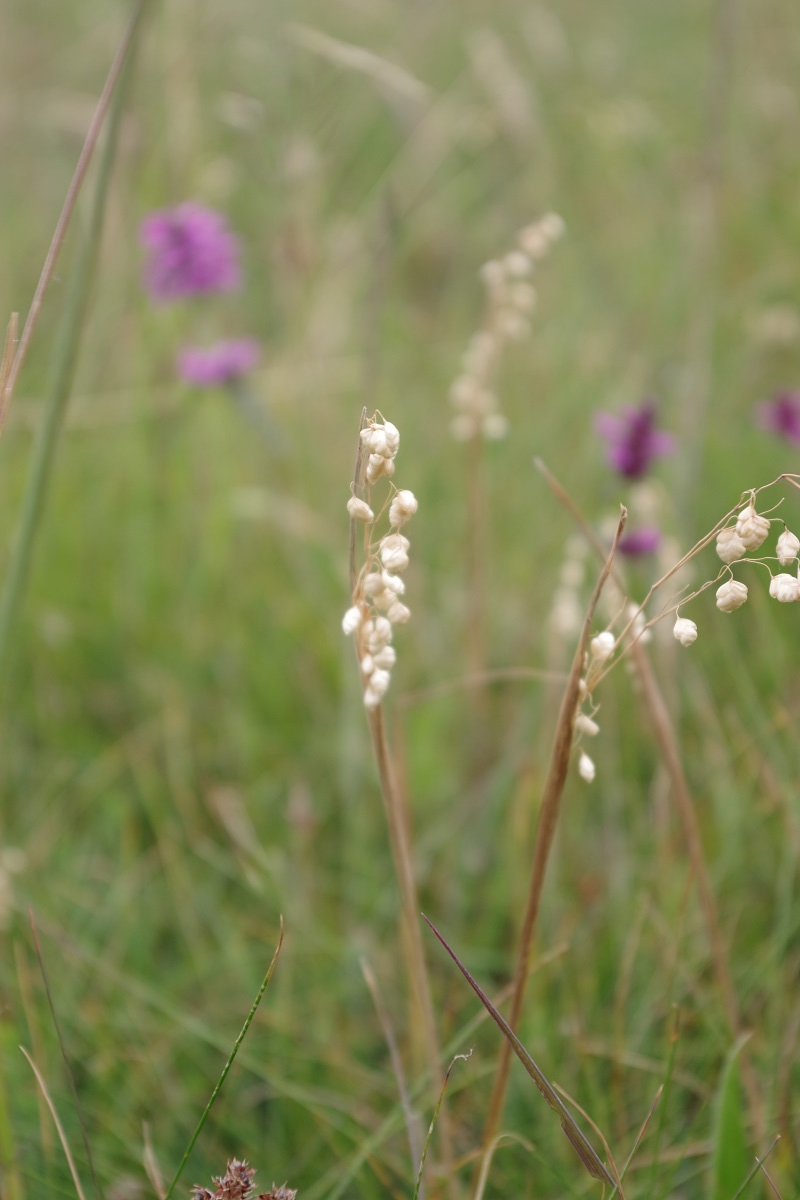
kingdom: Plantae
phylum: Tracheophyta
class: Liliopsida
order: Poales
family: Poaceae
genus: Briza
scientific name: Briza media
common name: Quaking grass
